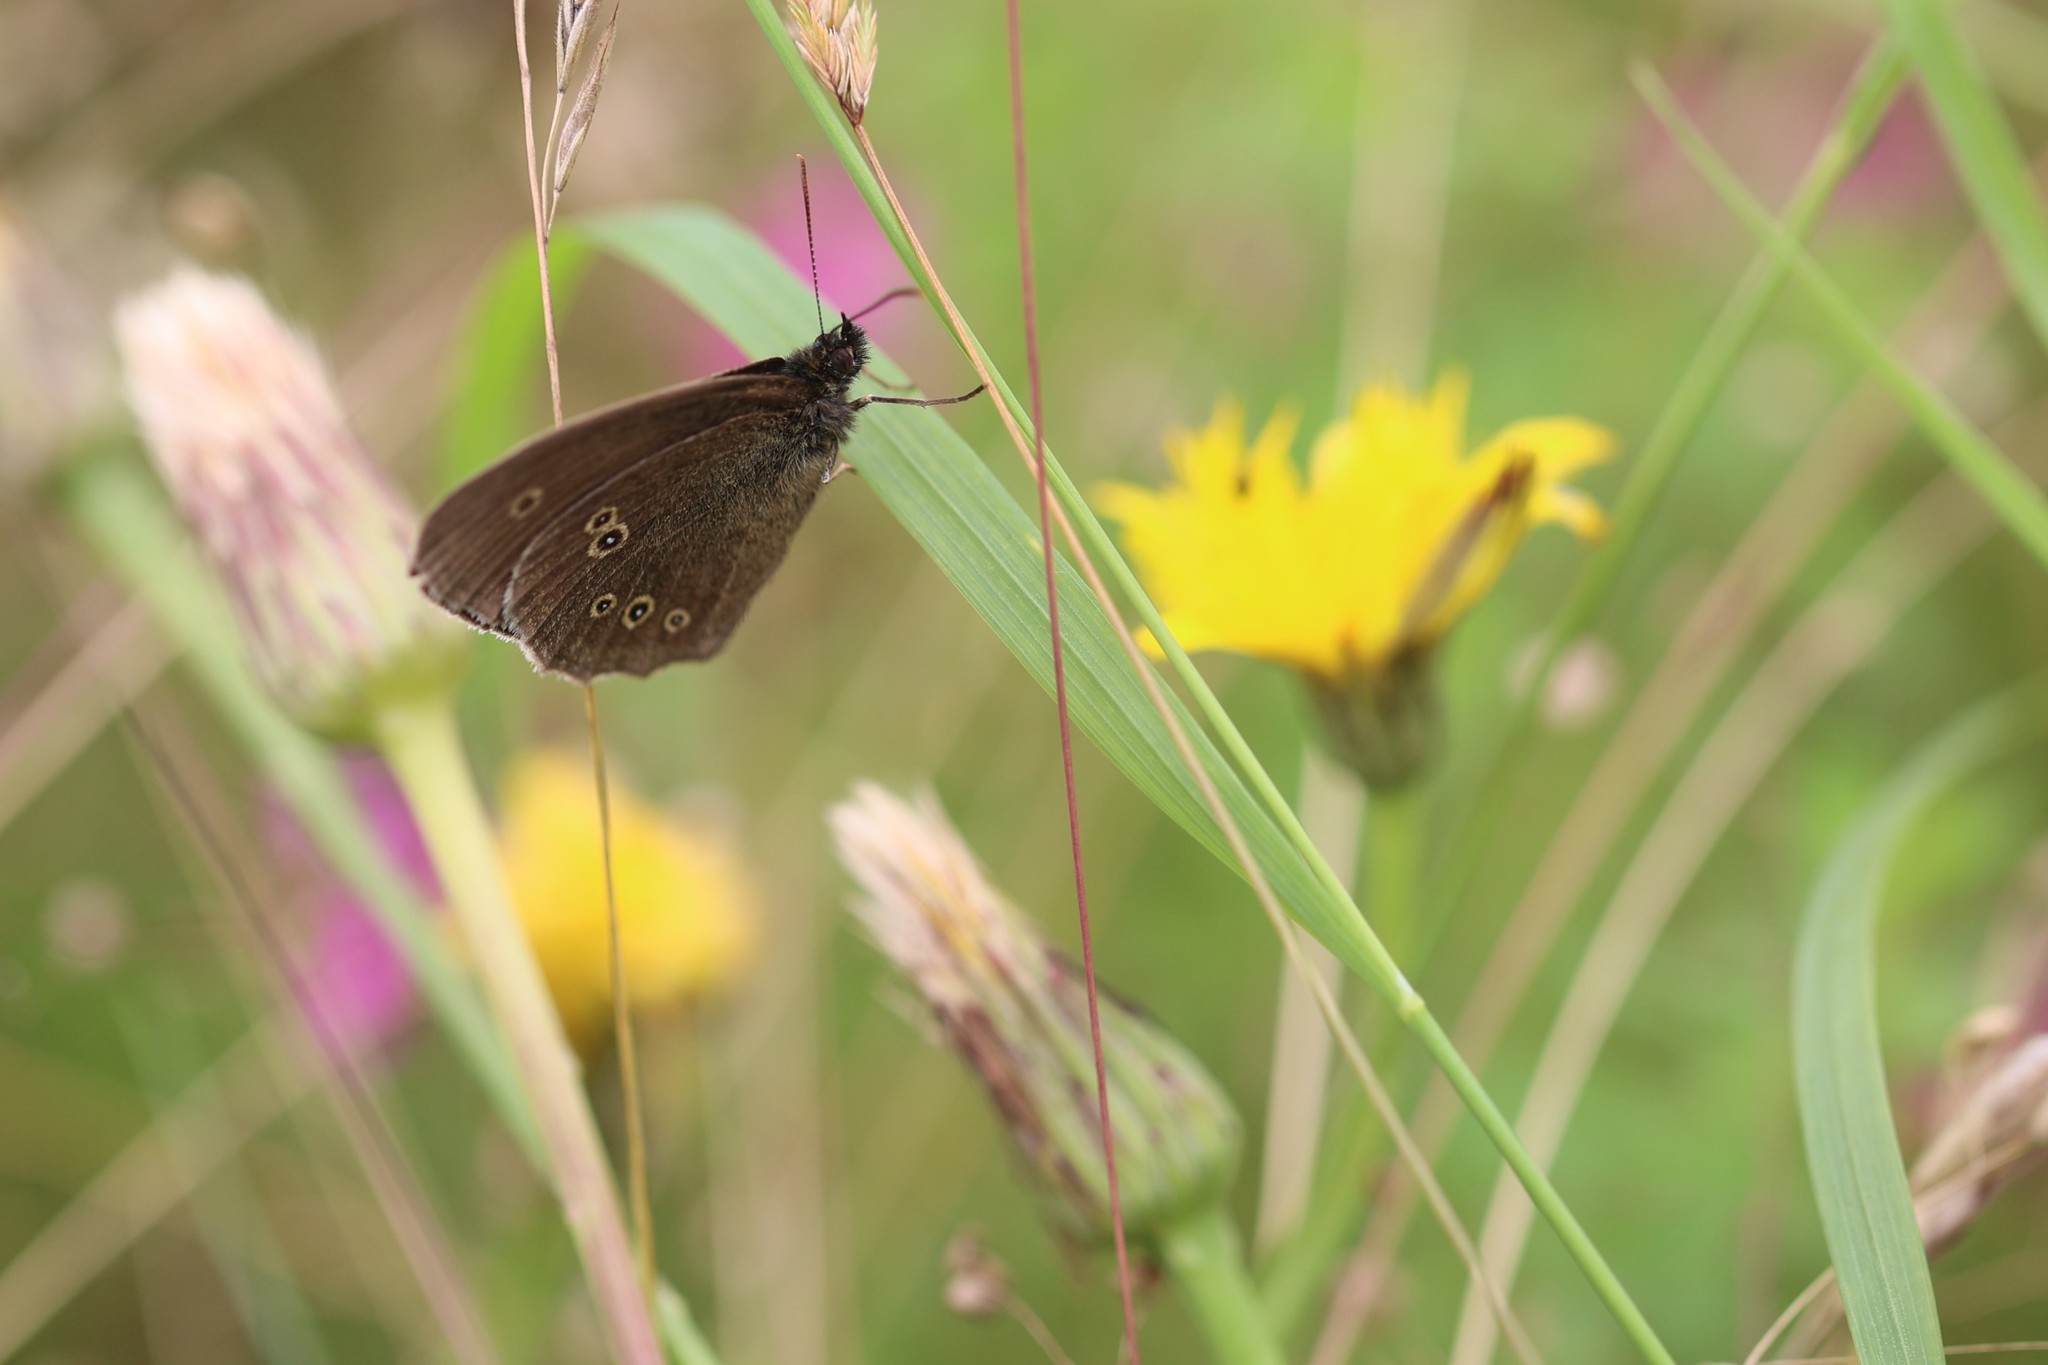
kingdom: Animalia
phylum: Arthropoda
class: Insecta
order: Lepidoptera
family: Nymphalidae
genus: Aphantopus
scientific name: Aphantopus hyperantus
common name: Ringlet
